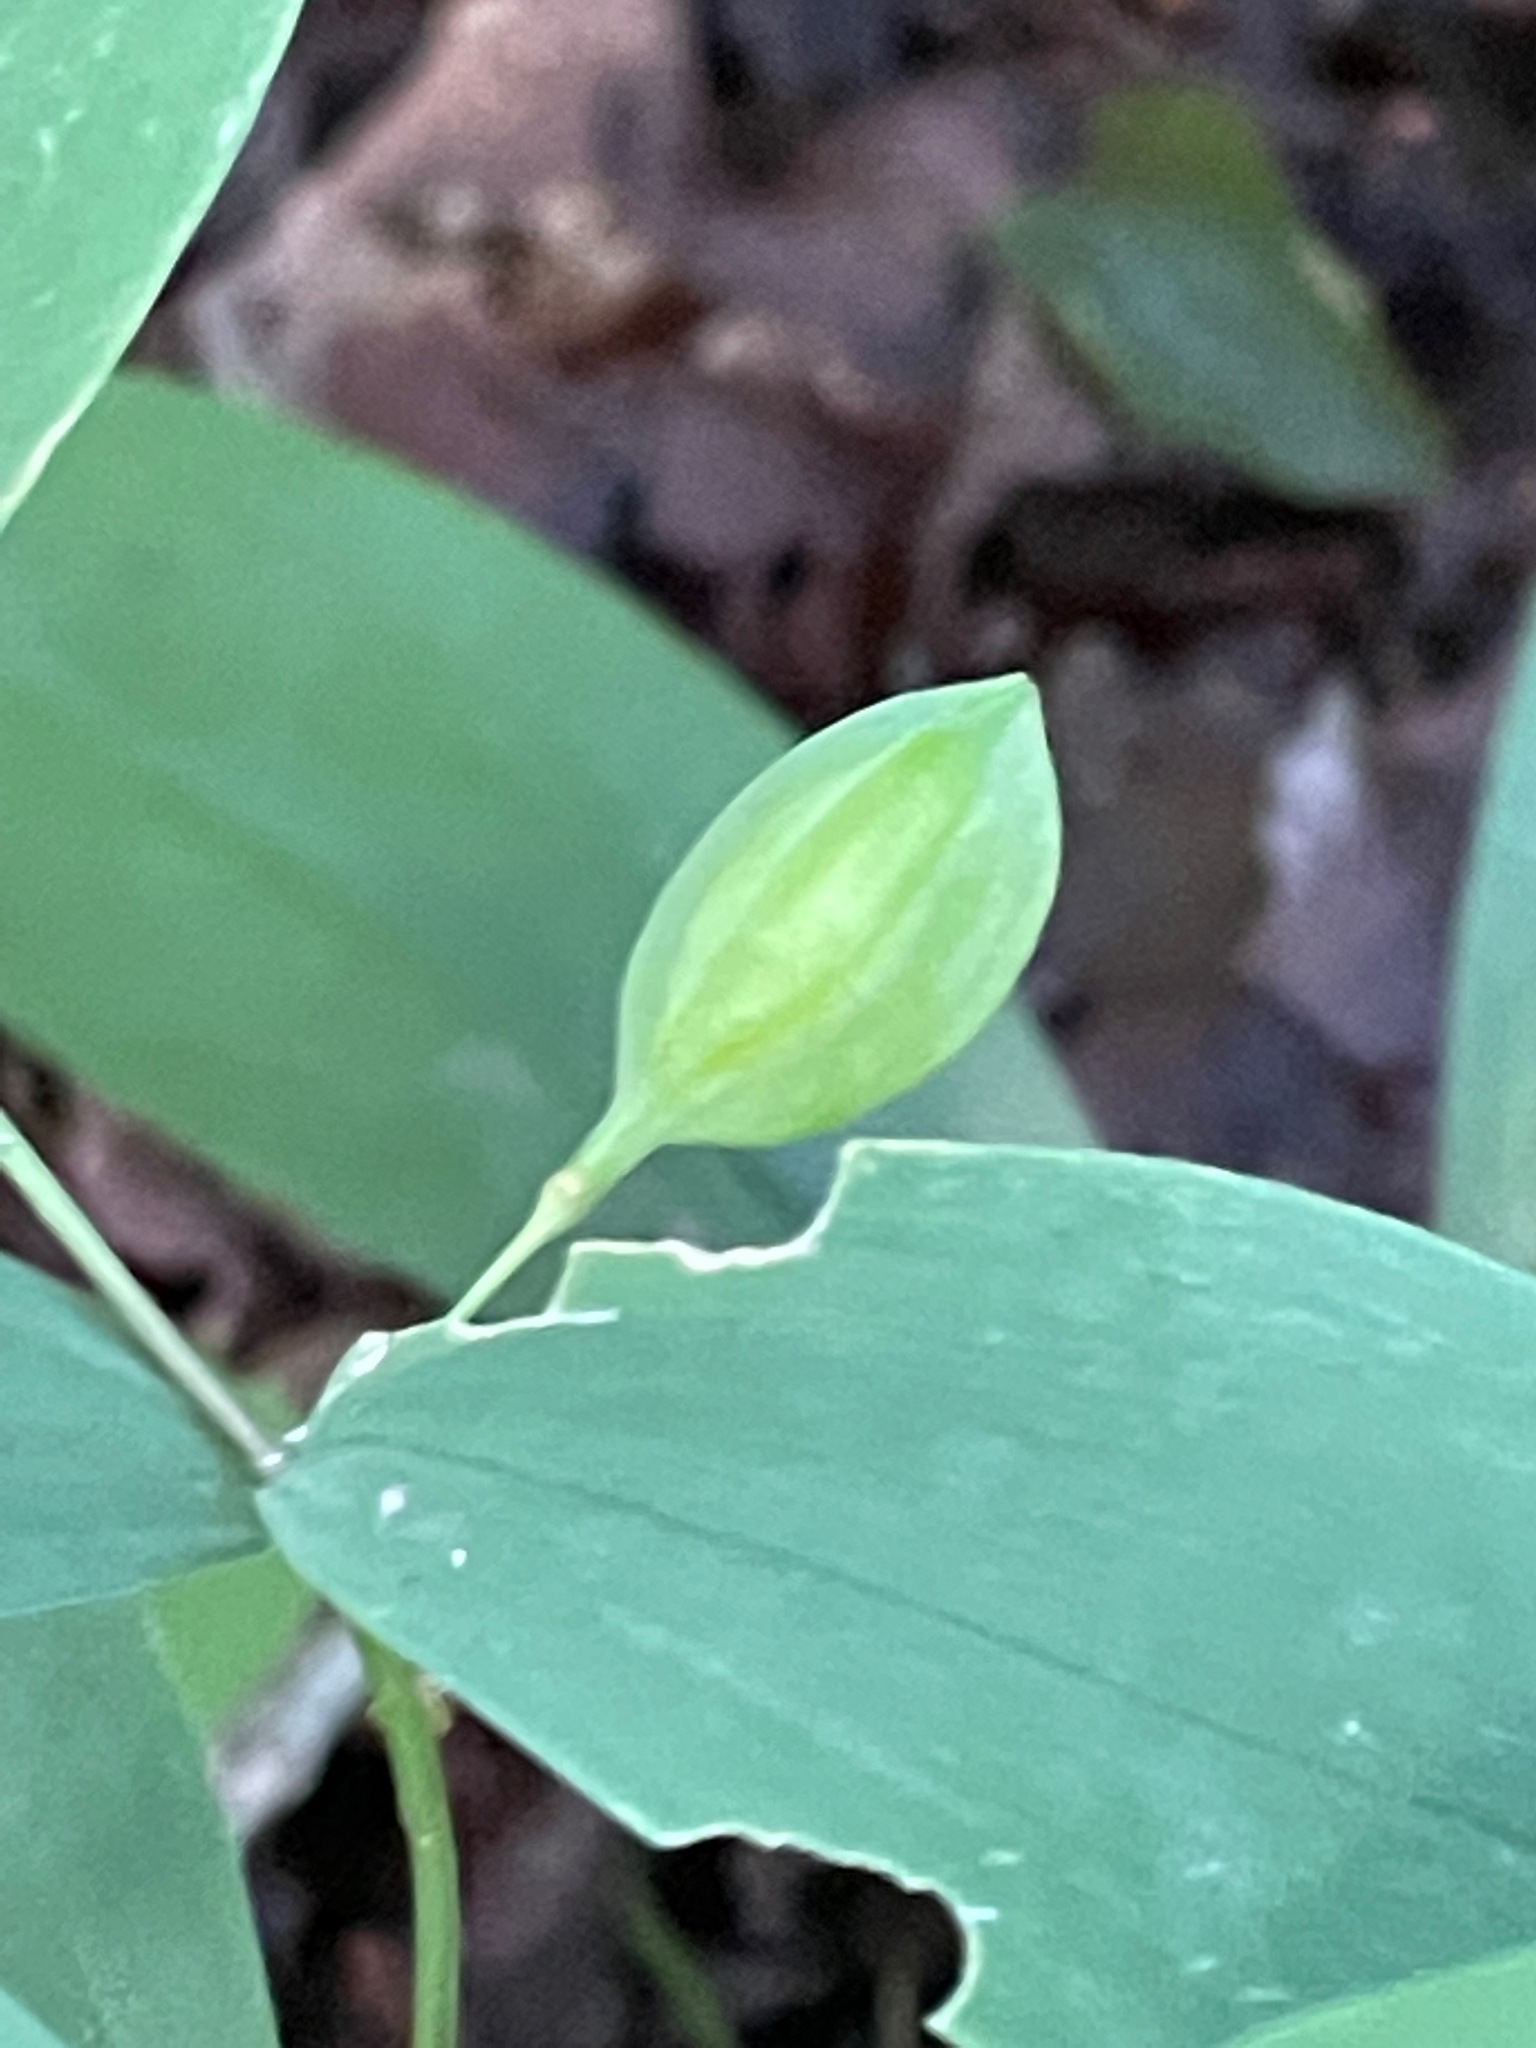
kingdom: Plantae
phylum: Tracheophyta
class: Liliopsida
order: Liliales
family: Colchicaceae
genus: Uvularia
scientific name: Uvularia sessilifolia
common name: Straw-lily
